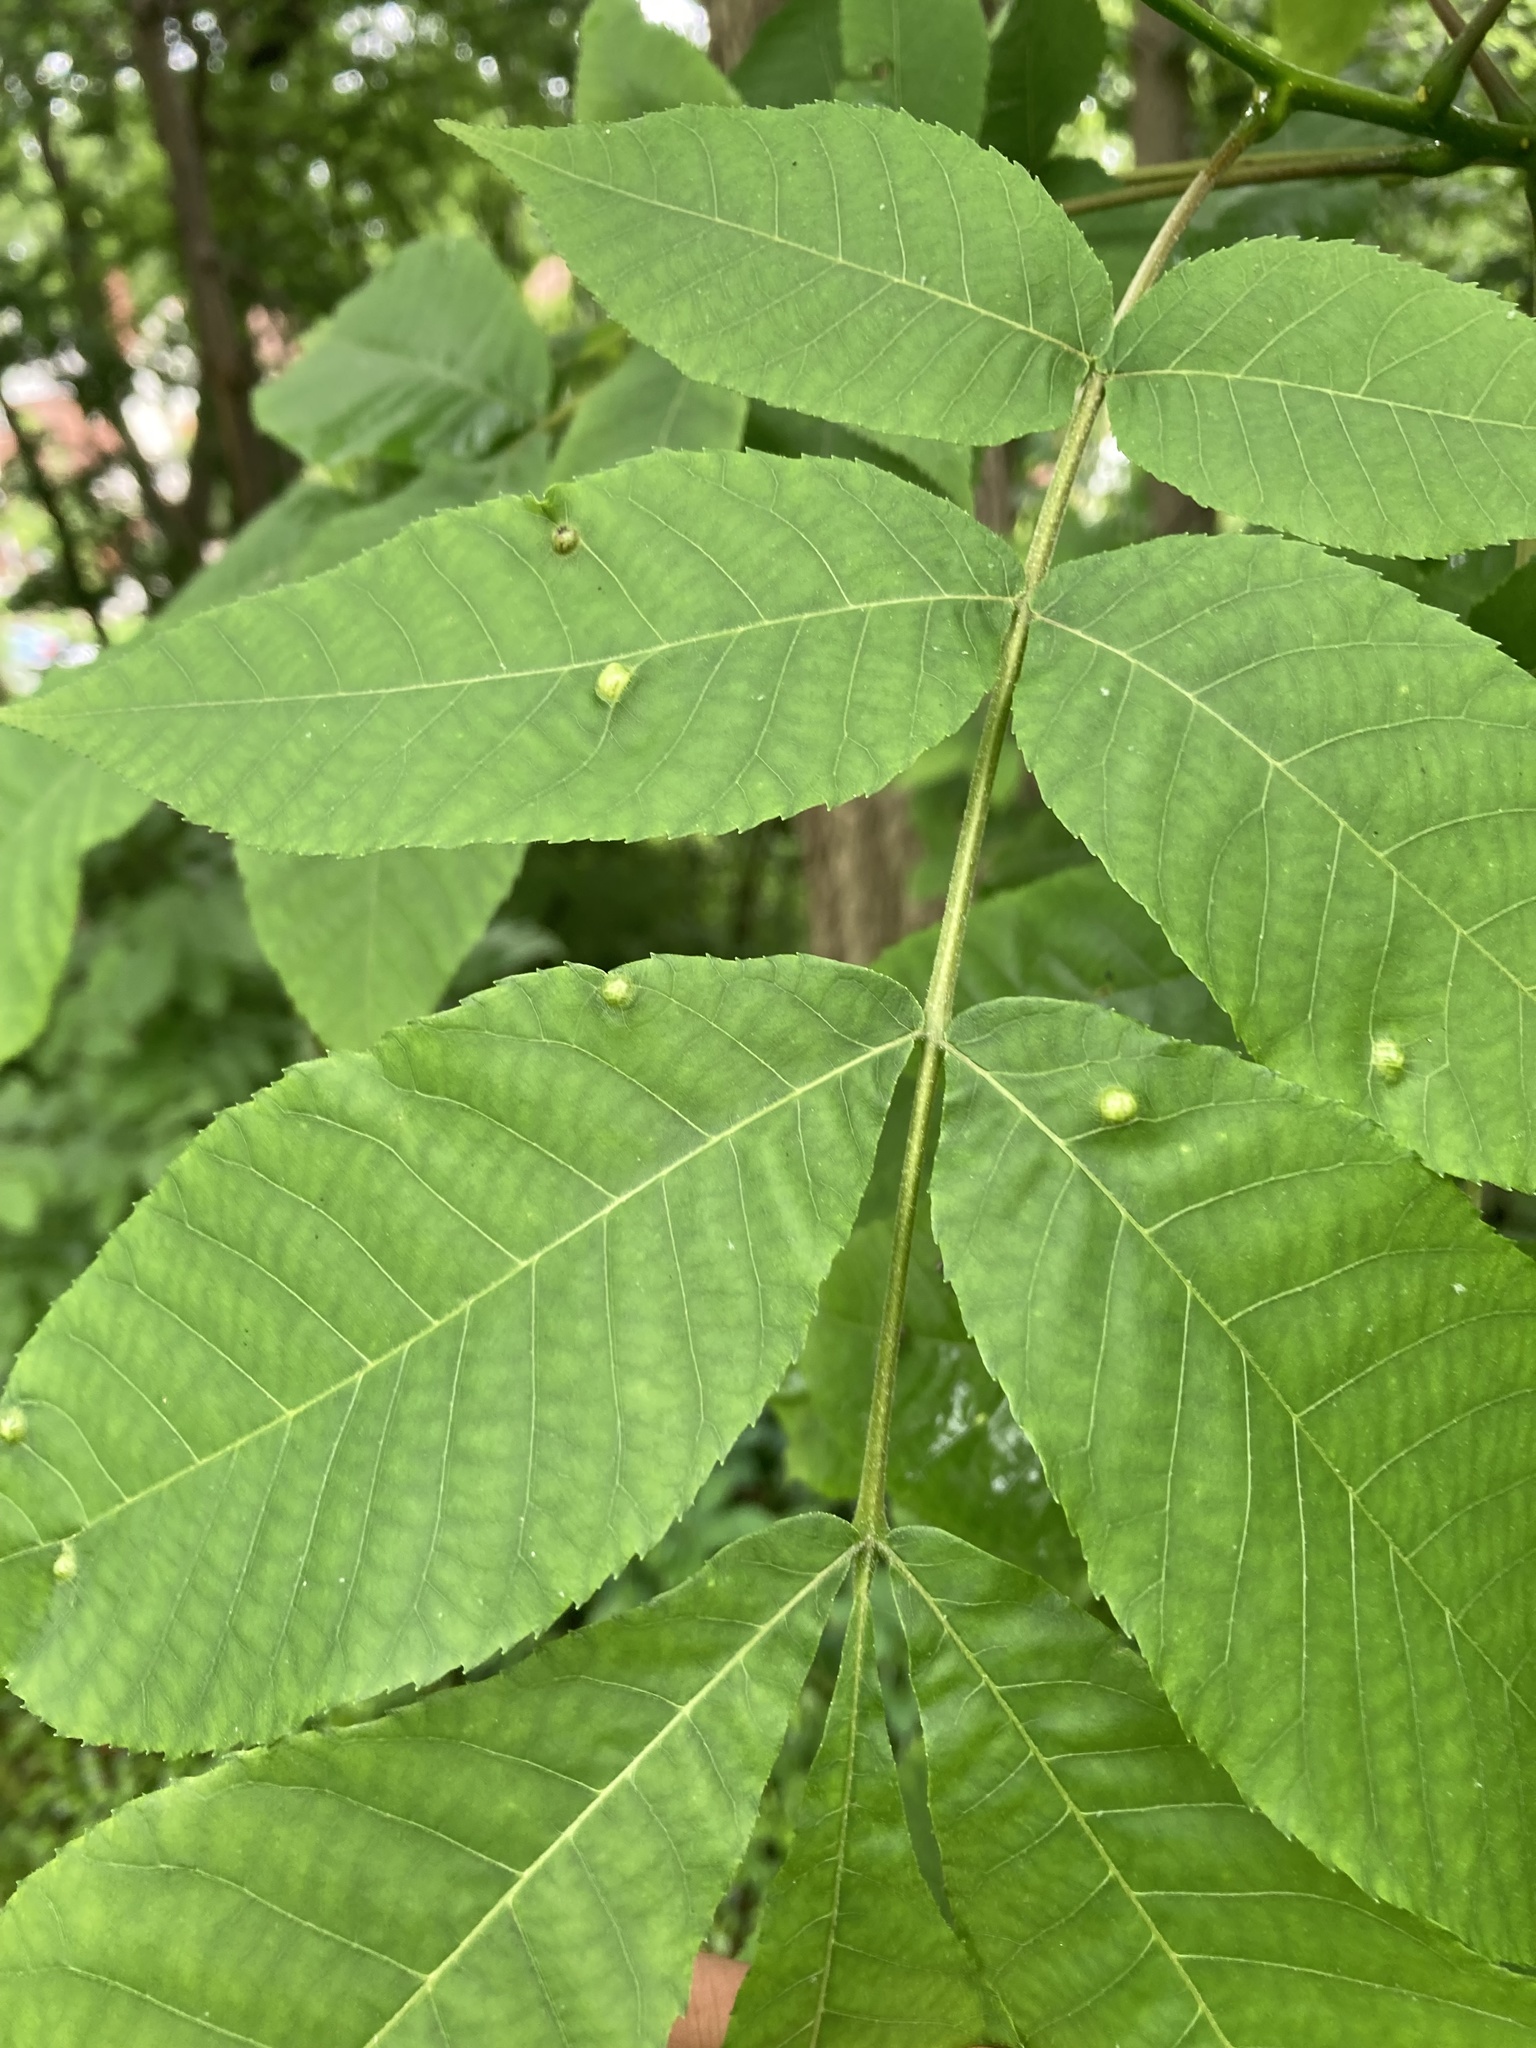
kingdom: Animalia
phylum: Arthropoda
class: Insecta
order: Hemiptera
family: Phylloxeridae
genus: Phylloxera
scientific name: Phylloxera caryae-semen
